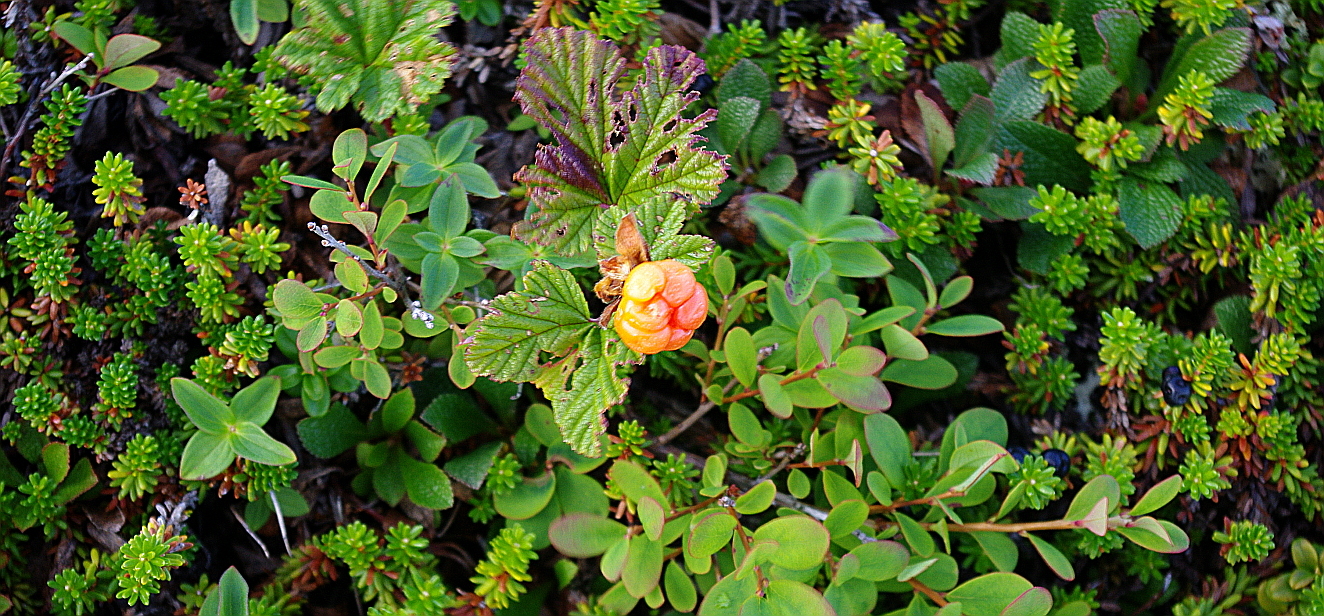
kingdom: Plantae
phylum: Tracheophyta
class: Magnoliopsida
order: Ericales
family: Ericaceae
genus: Vaccinium
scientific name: Vaccinium uliginosum
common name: Bog bilberry
